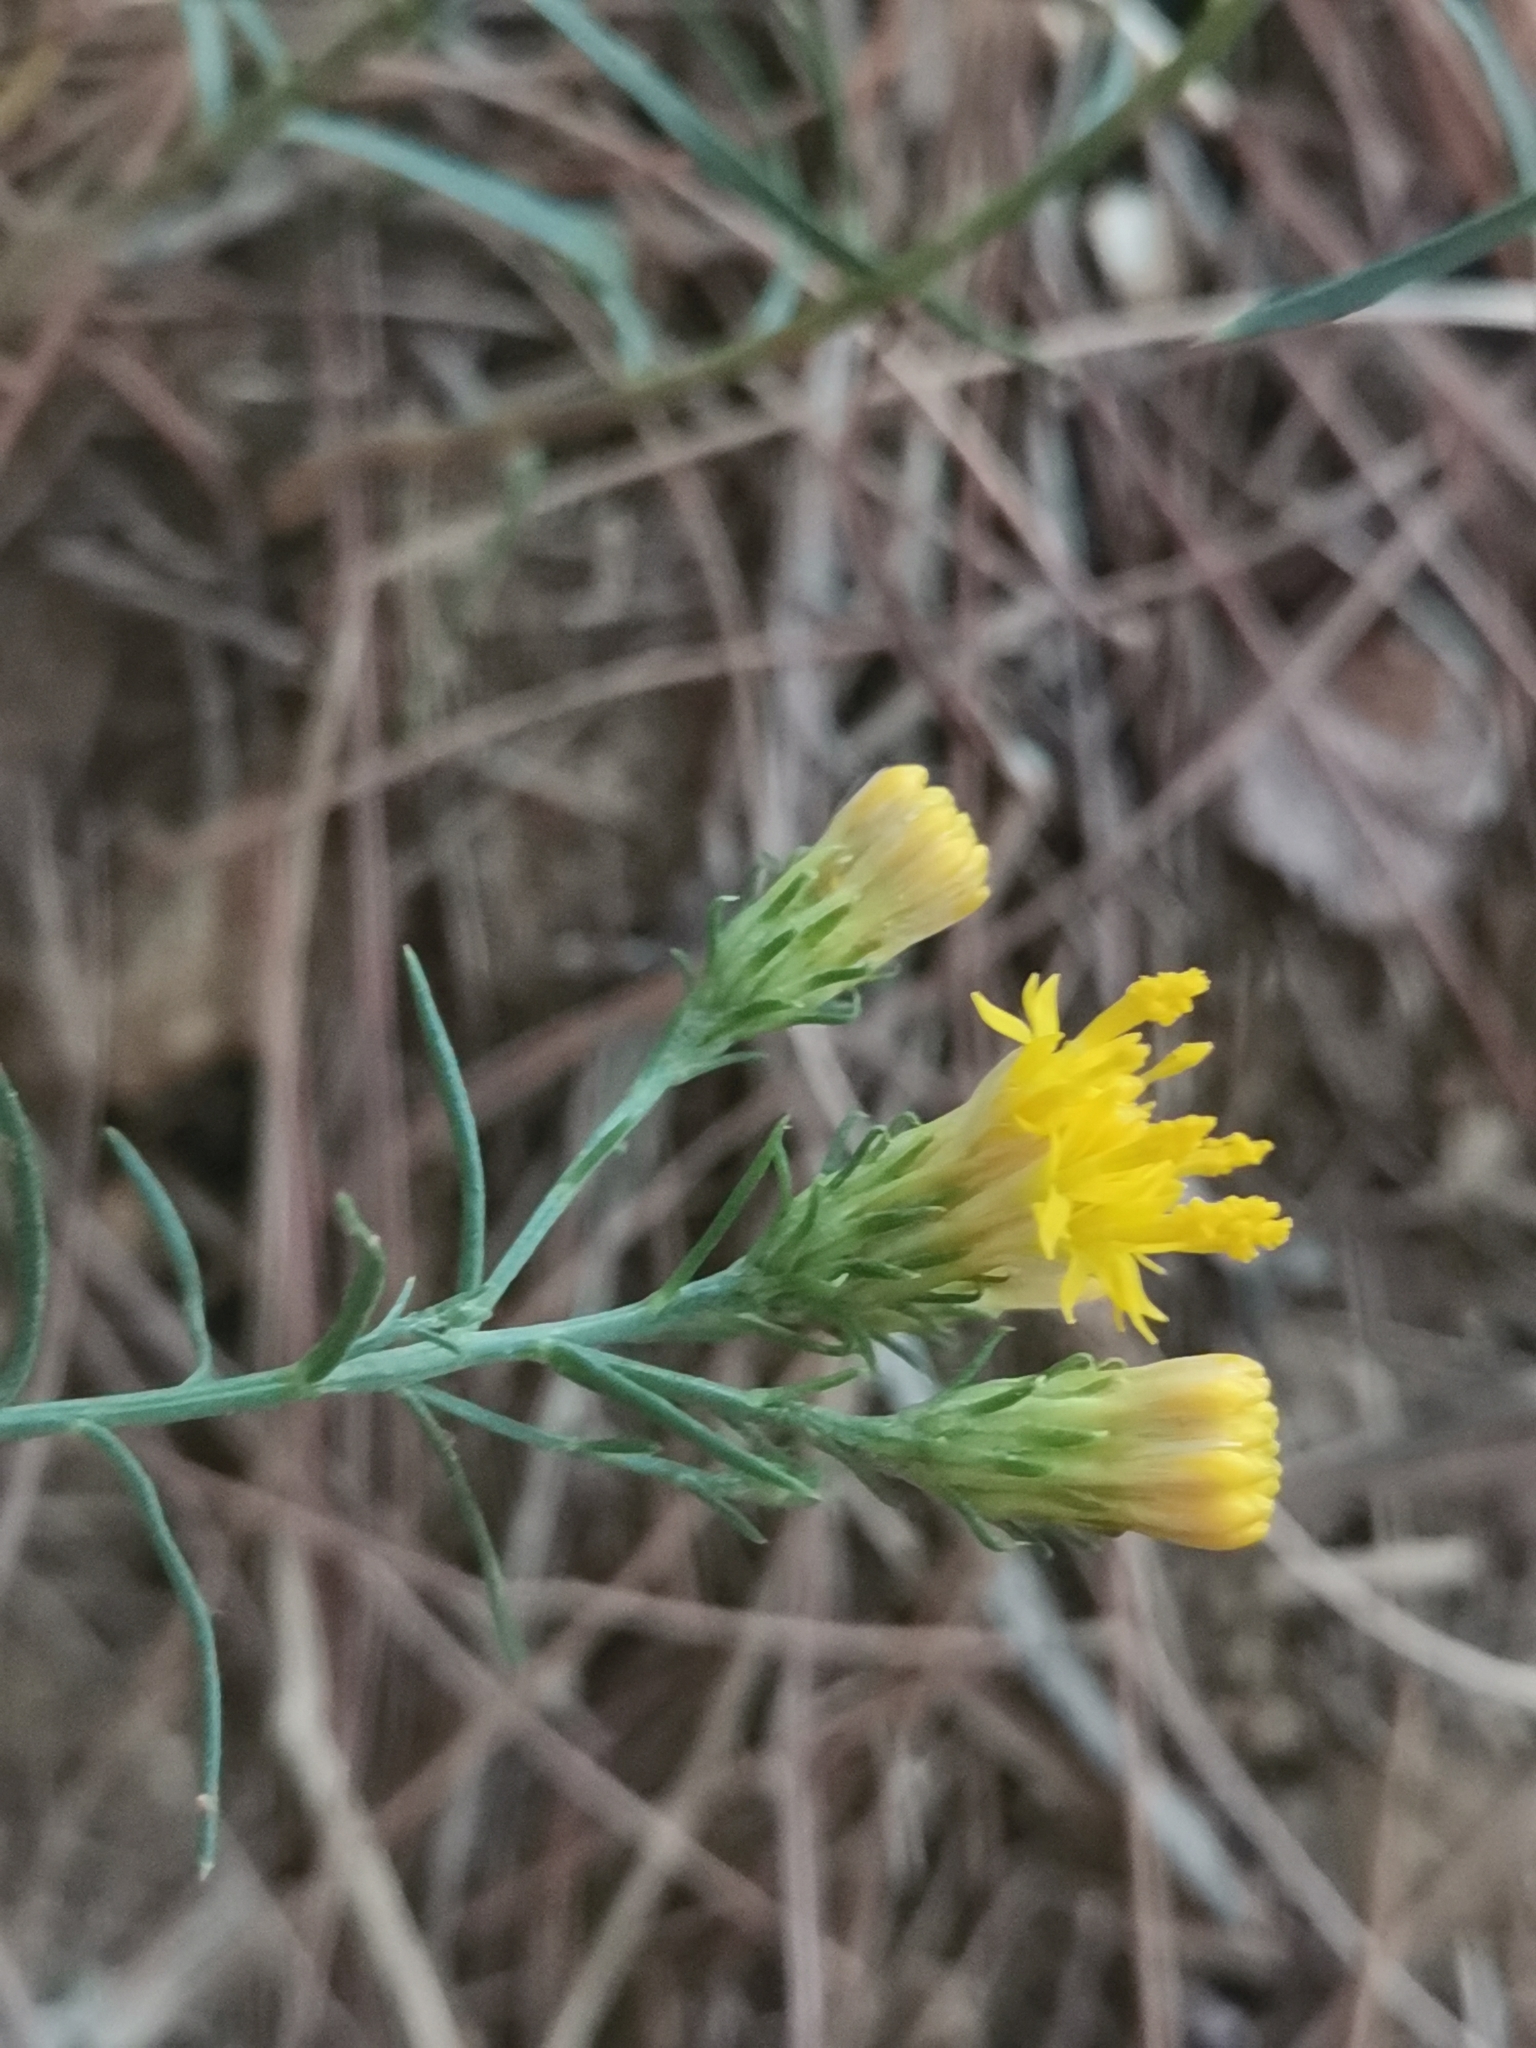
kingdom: Plantae
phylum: Tracheophyta
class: Magnoliopsida
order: Asterales
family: Asteraceae
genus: Galatella
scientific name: Galatella linosyris
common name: Goldilocks aster
